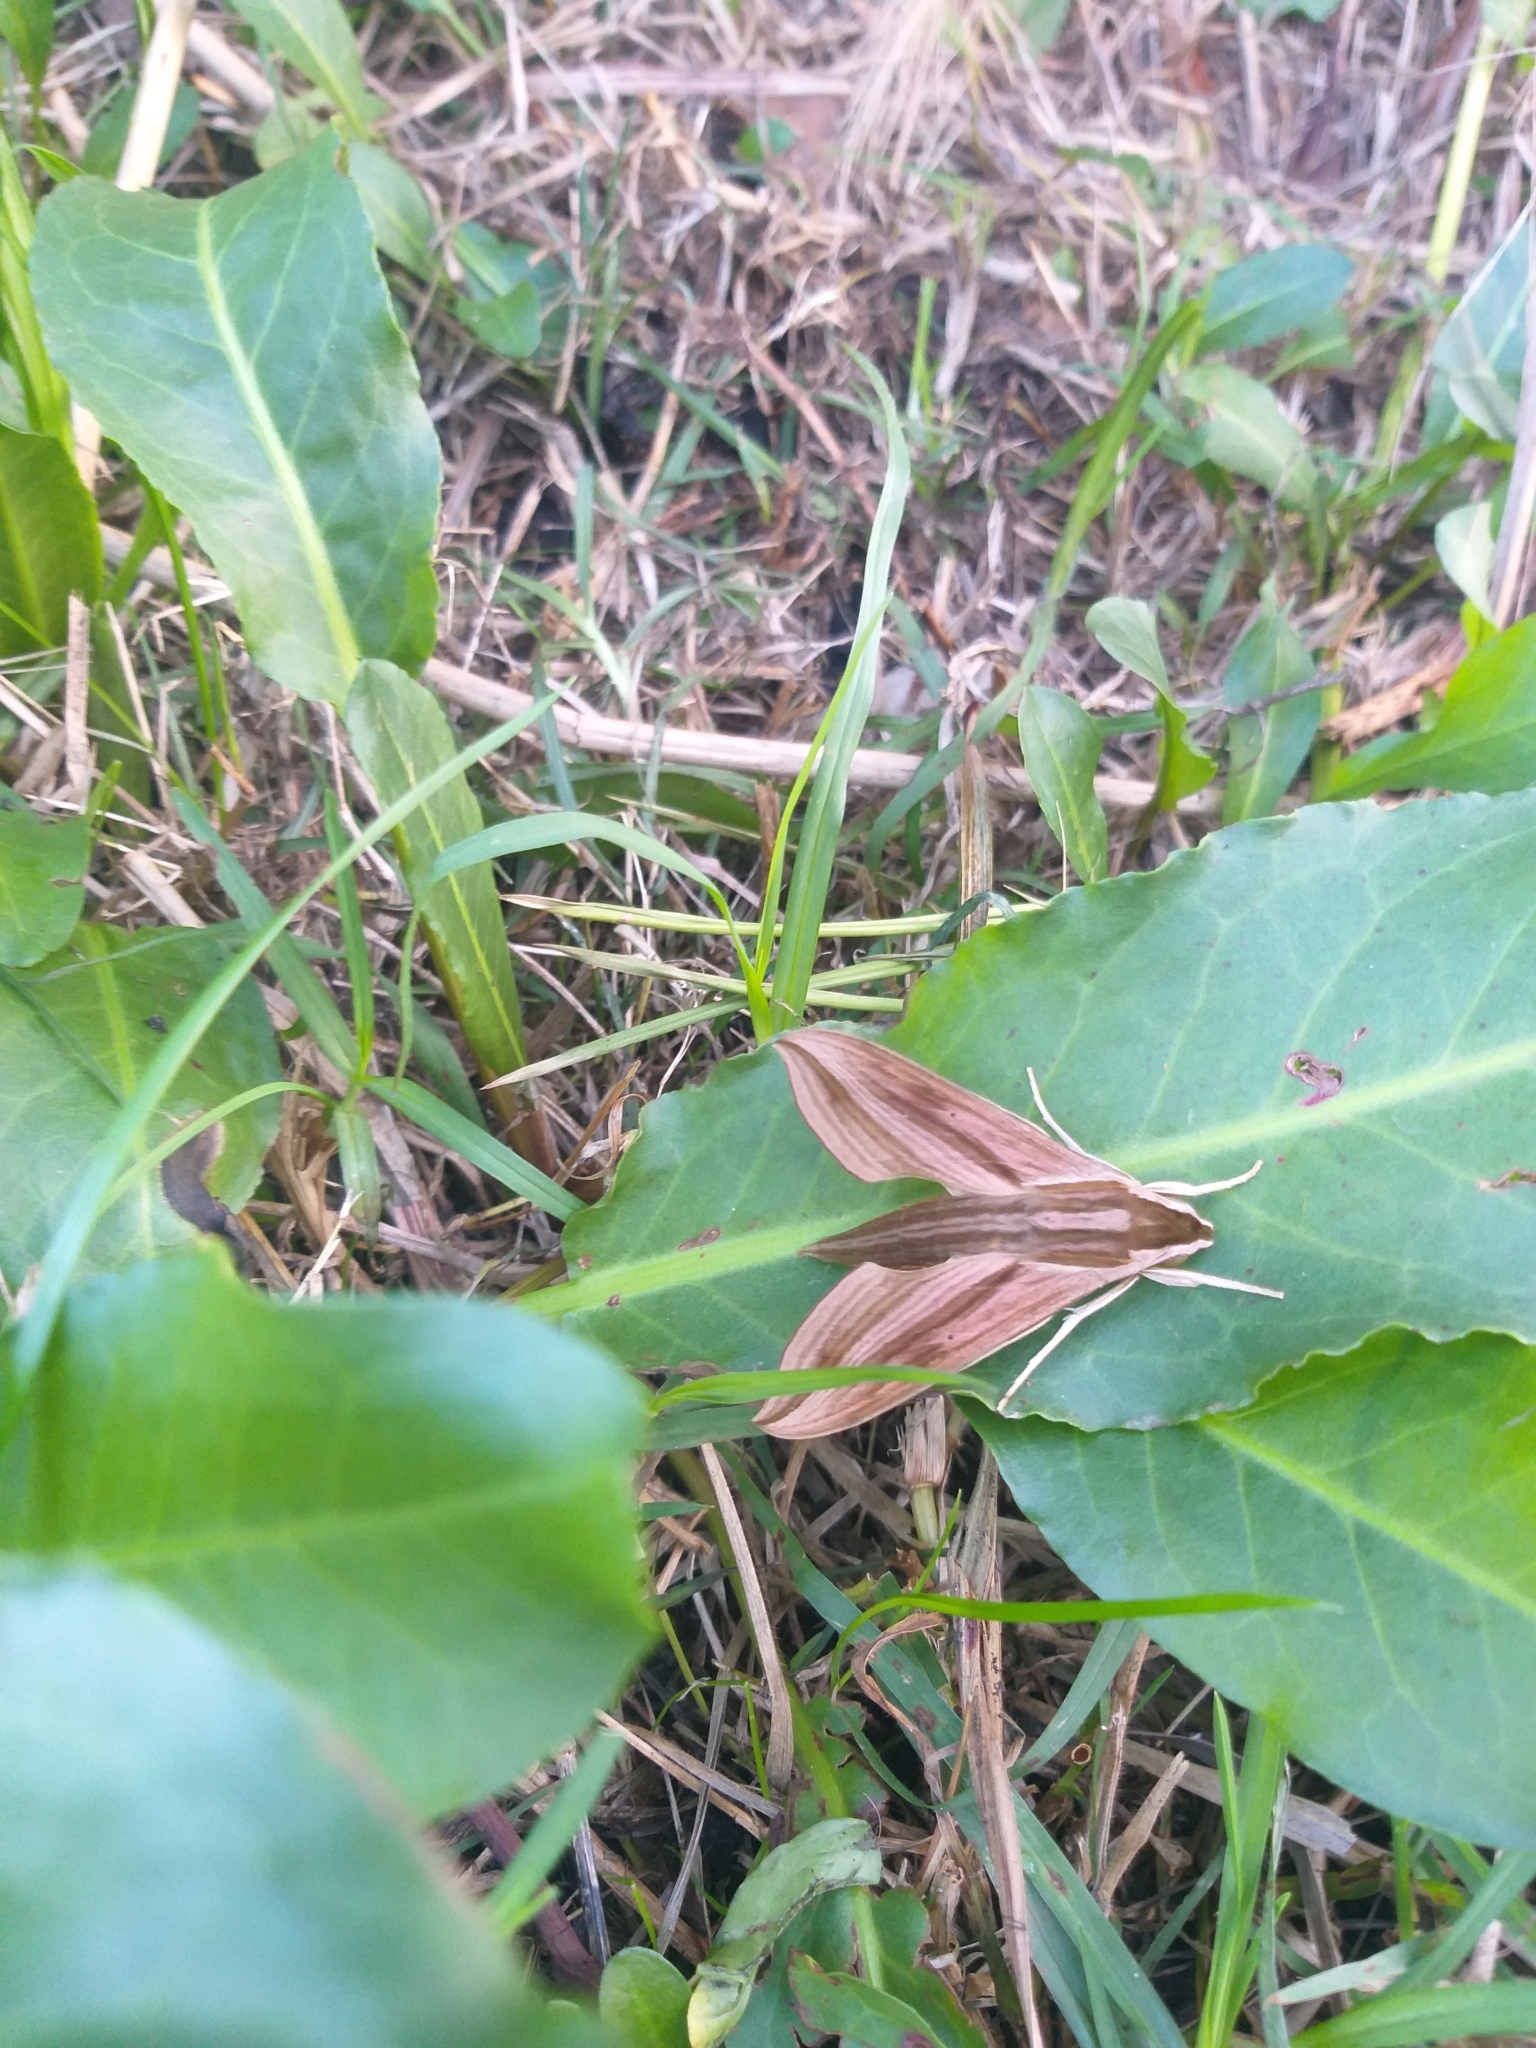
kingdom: Animalia
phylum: Arthropoda
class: Insecta
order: Lepidoptera
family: Sphingidae
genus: Hippotion
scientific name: Hippotion eson
